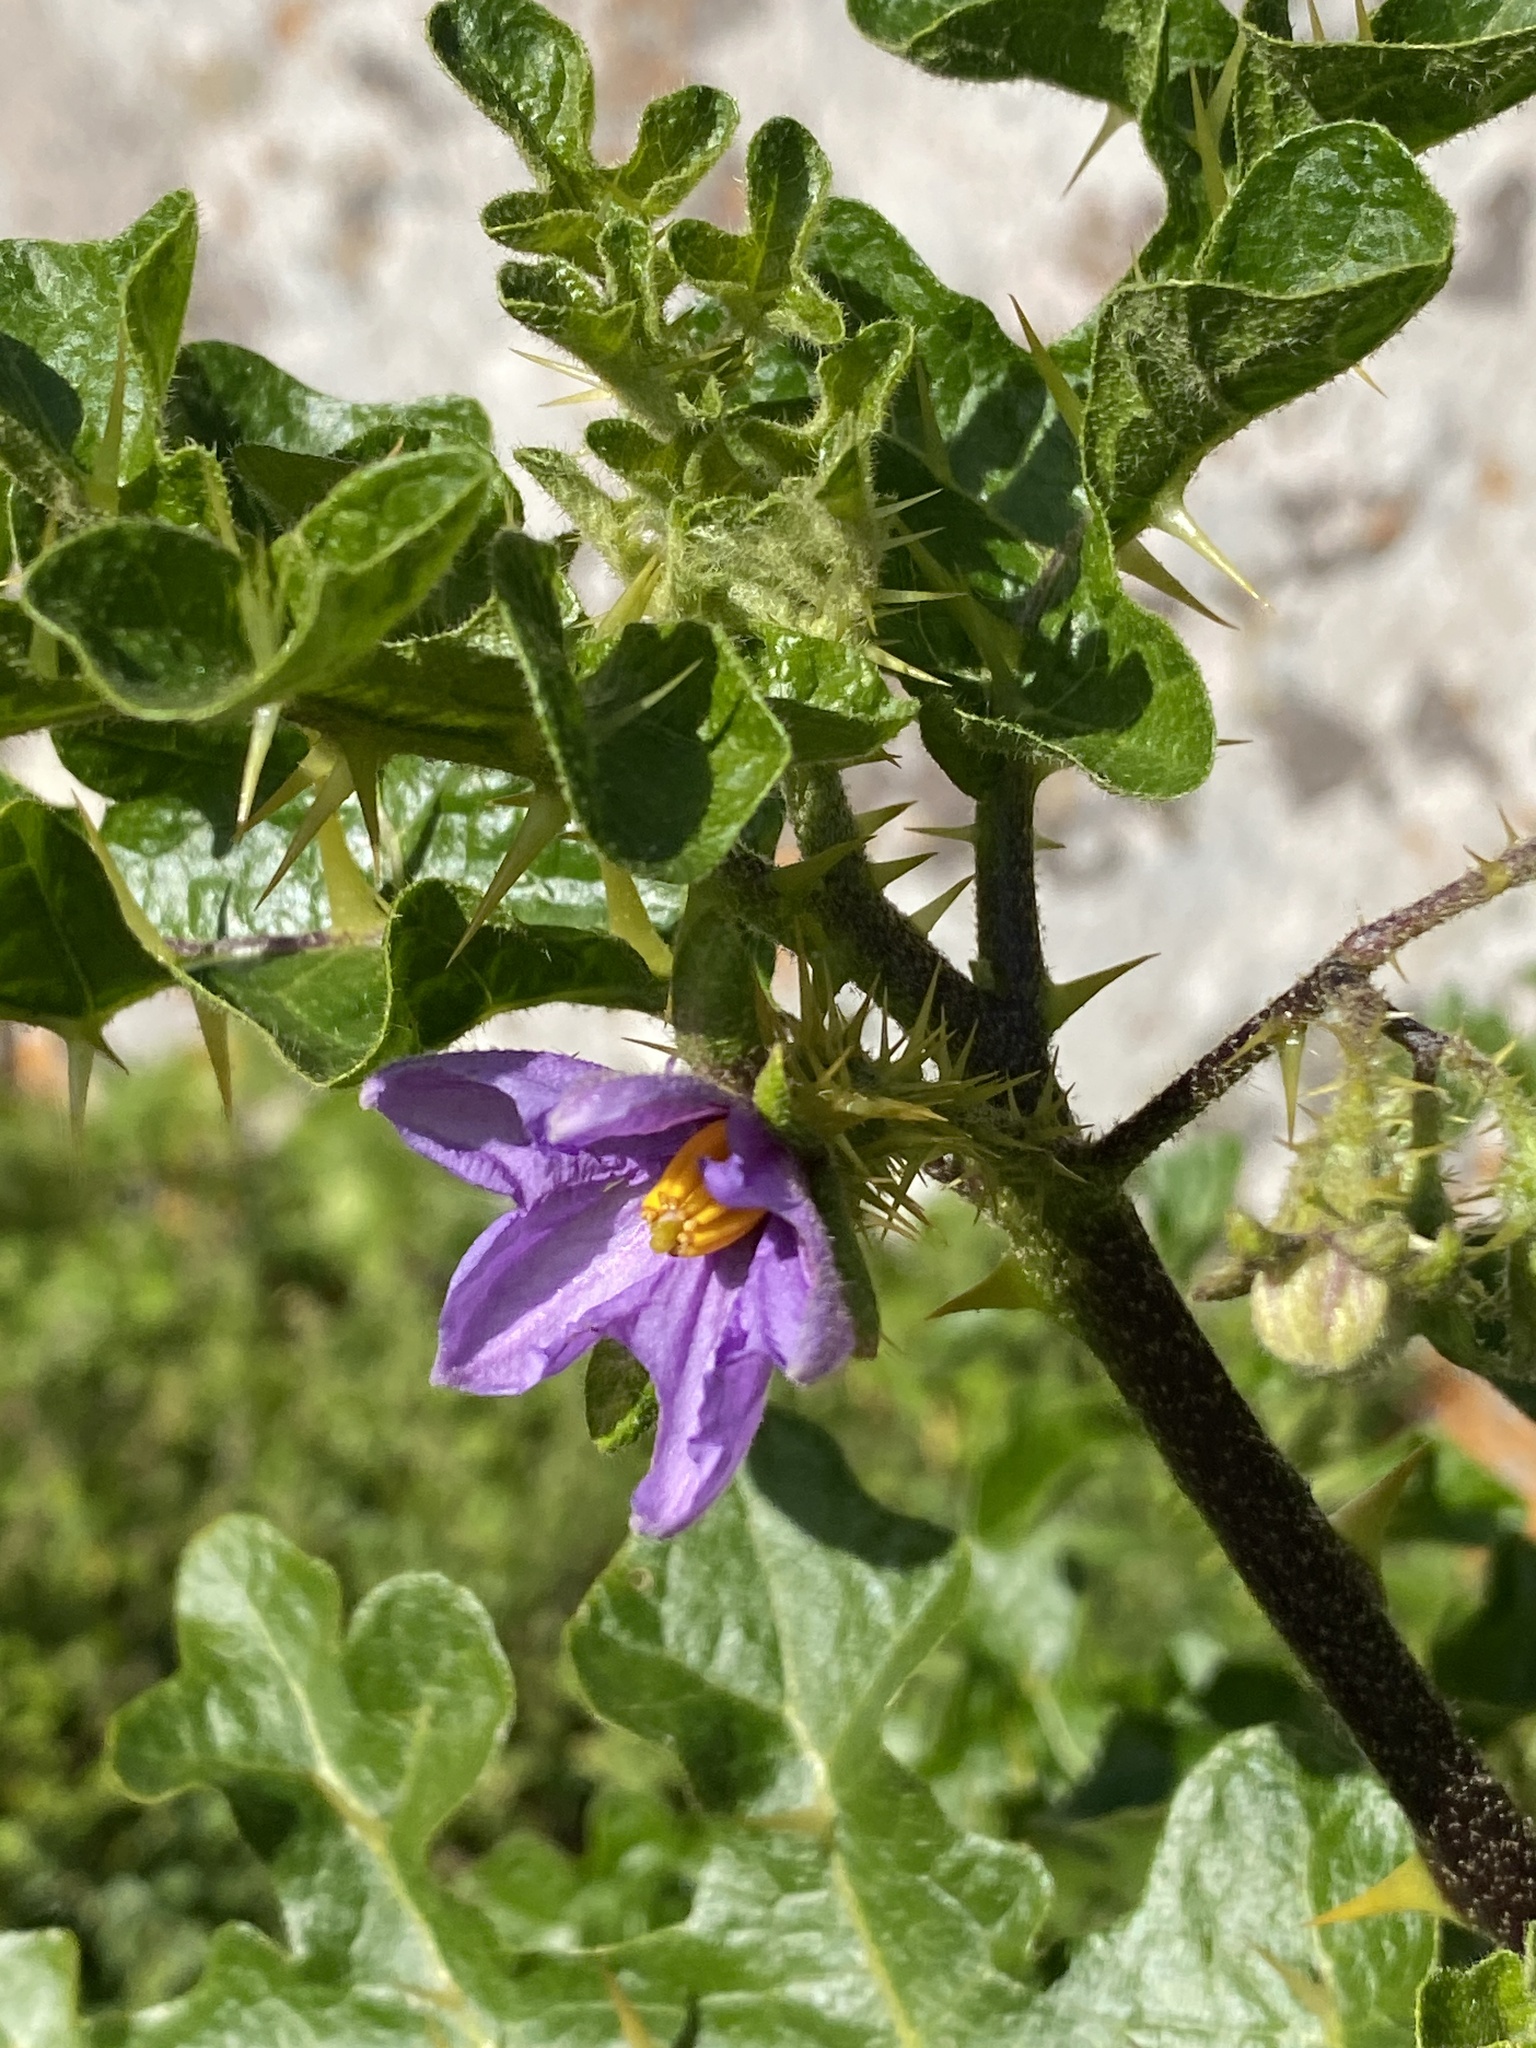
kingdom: Plantae
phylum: Tracheophyta
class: Magnoliopsida
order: Solanales
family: Solanaceae
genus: Solanum
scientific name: Solanum linnaeanum
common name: Nightshade
